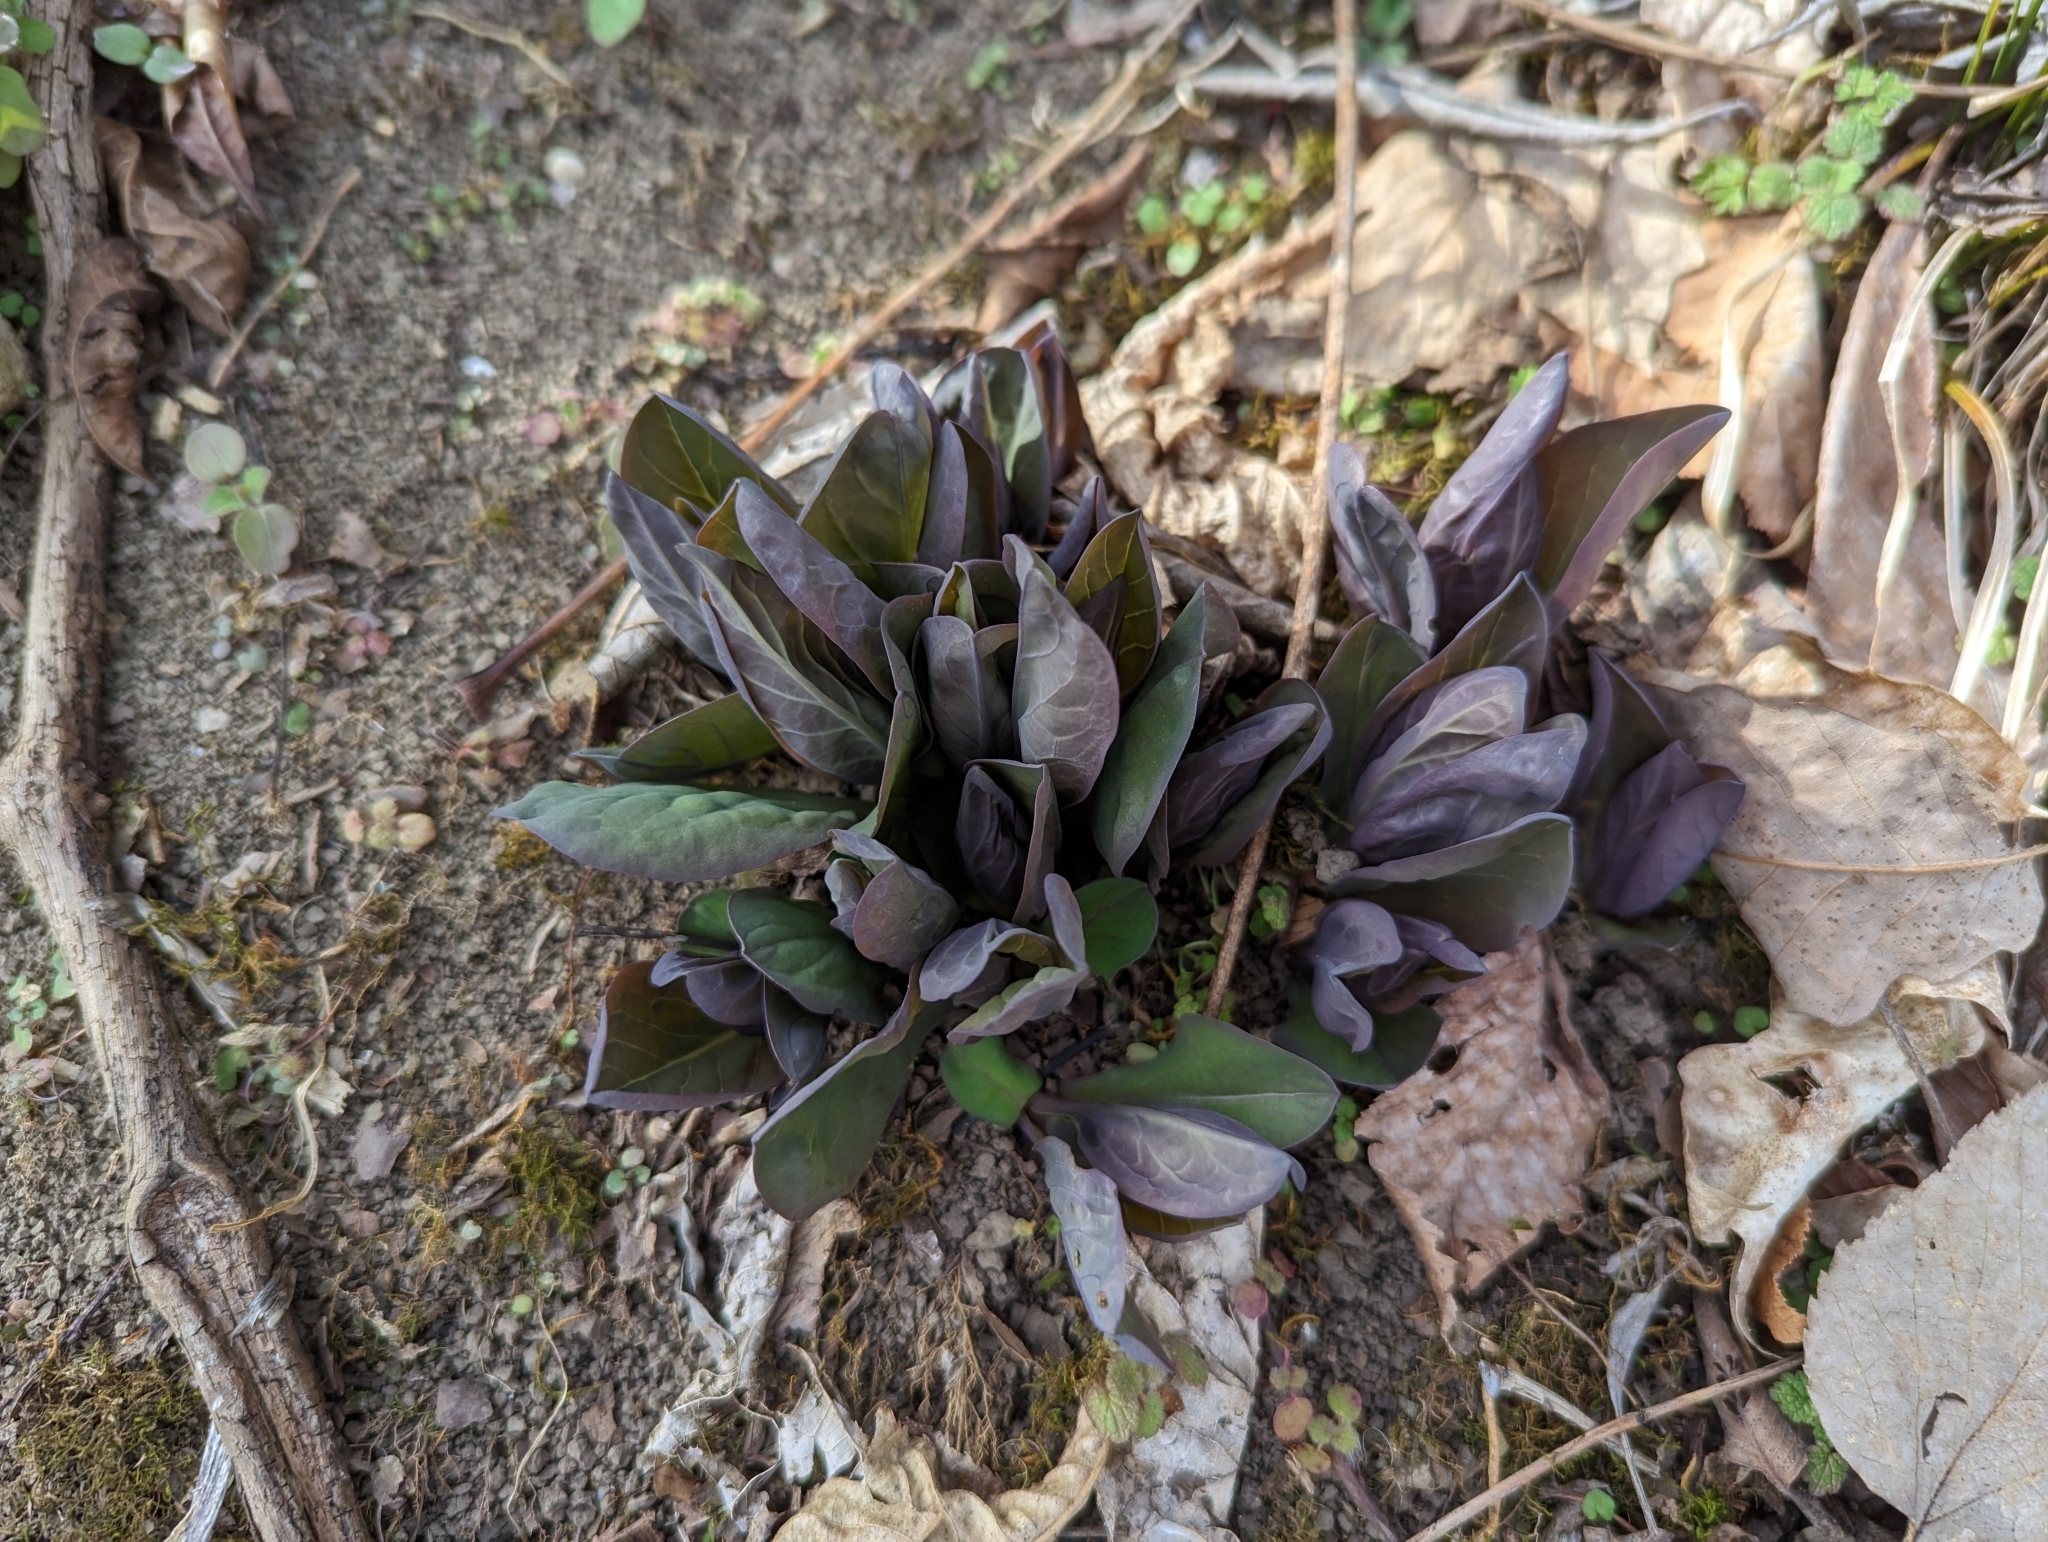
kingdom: Plantae
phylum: Tracheophyta
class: Magnoliopsida
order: Boraginales
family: Boraginaceae
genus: Mertensia
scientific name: Mertensia virginica
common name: Virginia bluebells
